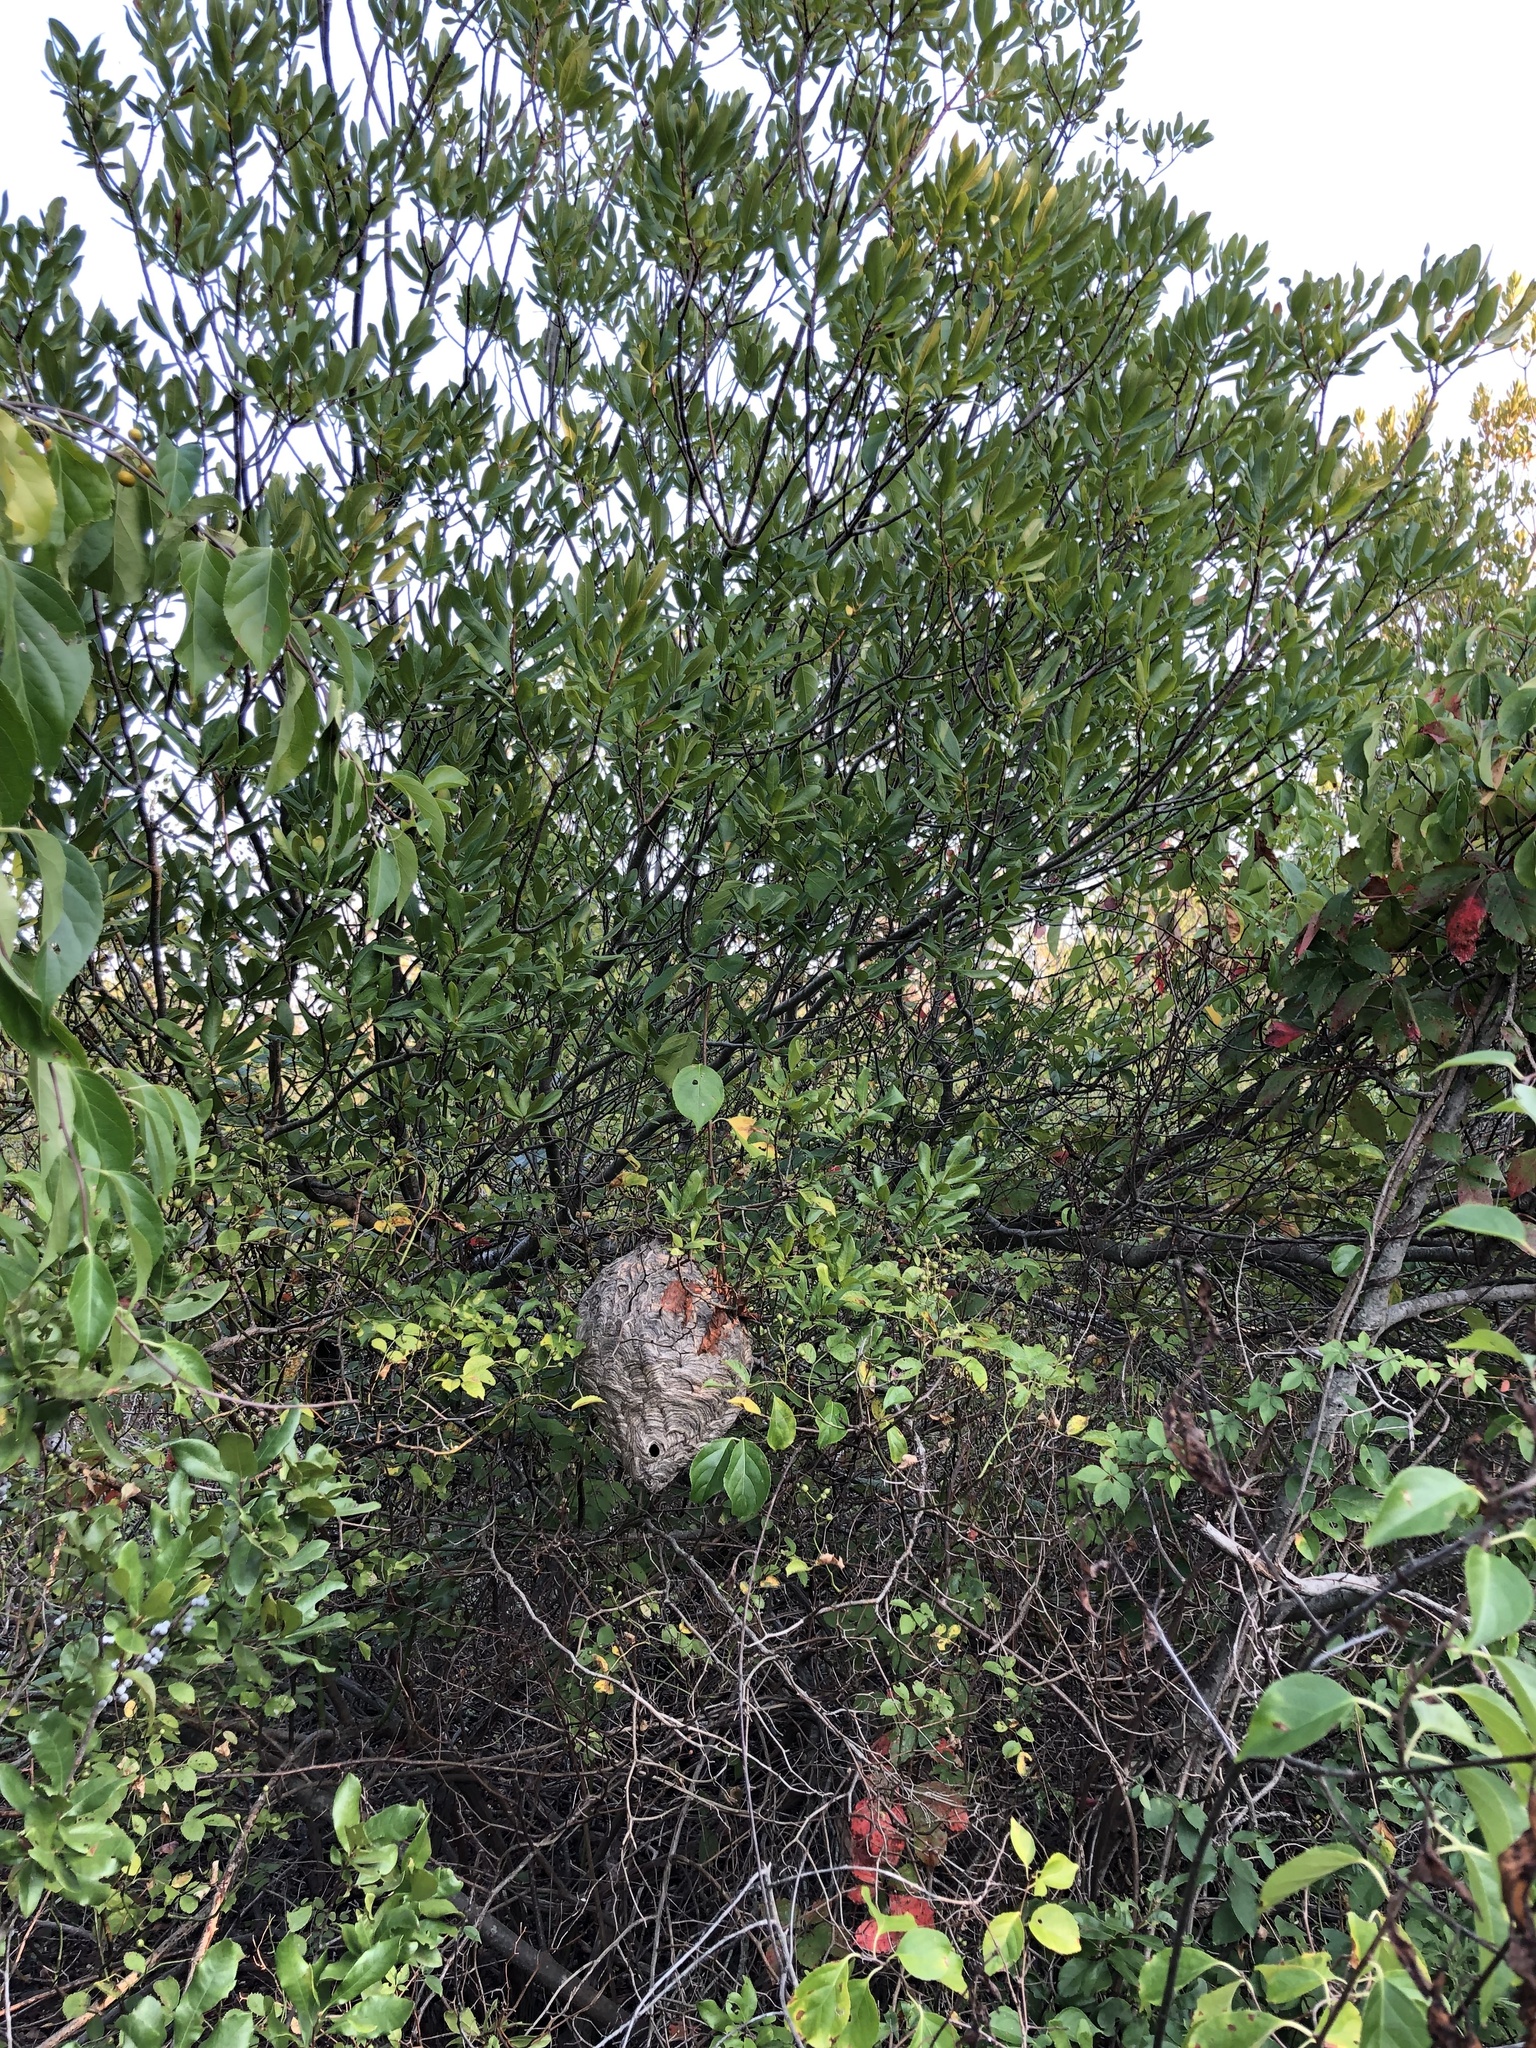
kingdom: Animalia
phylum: Arthropoda
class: Insecta
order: Hymenoptera
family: Vespidae
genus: Dolichovespula
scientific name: Dolichovespula maculata
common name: Bald-faced hornet
